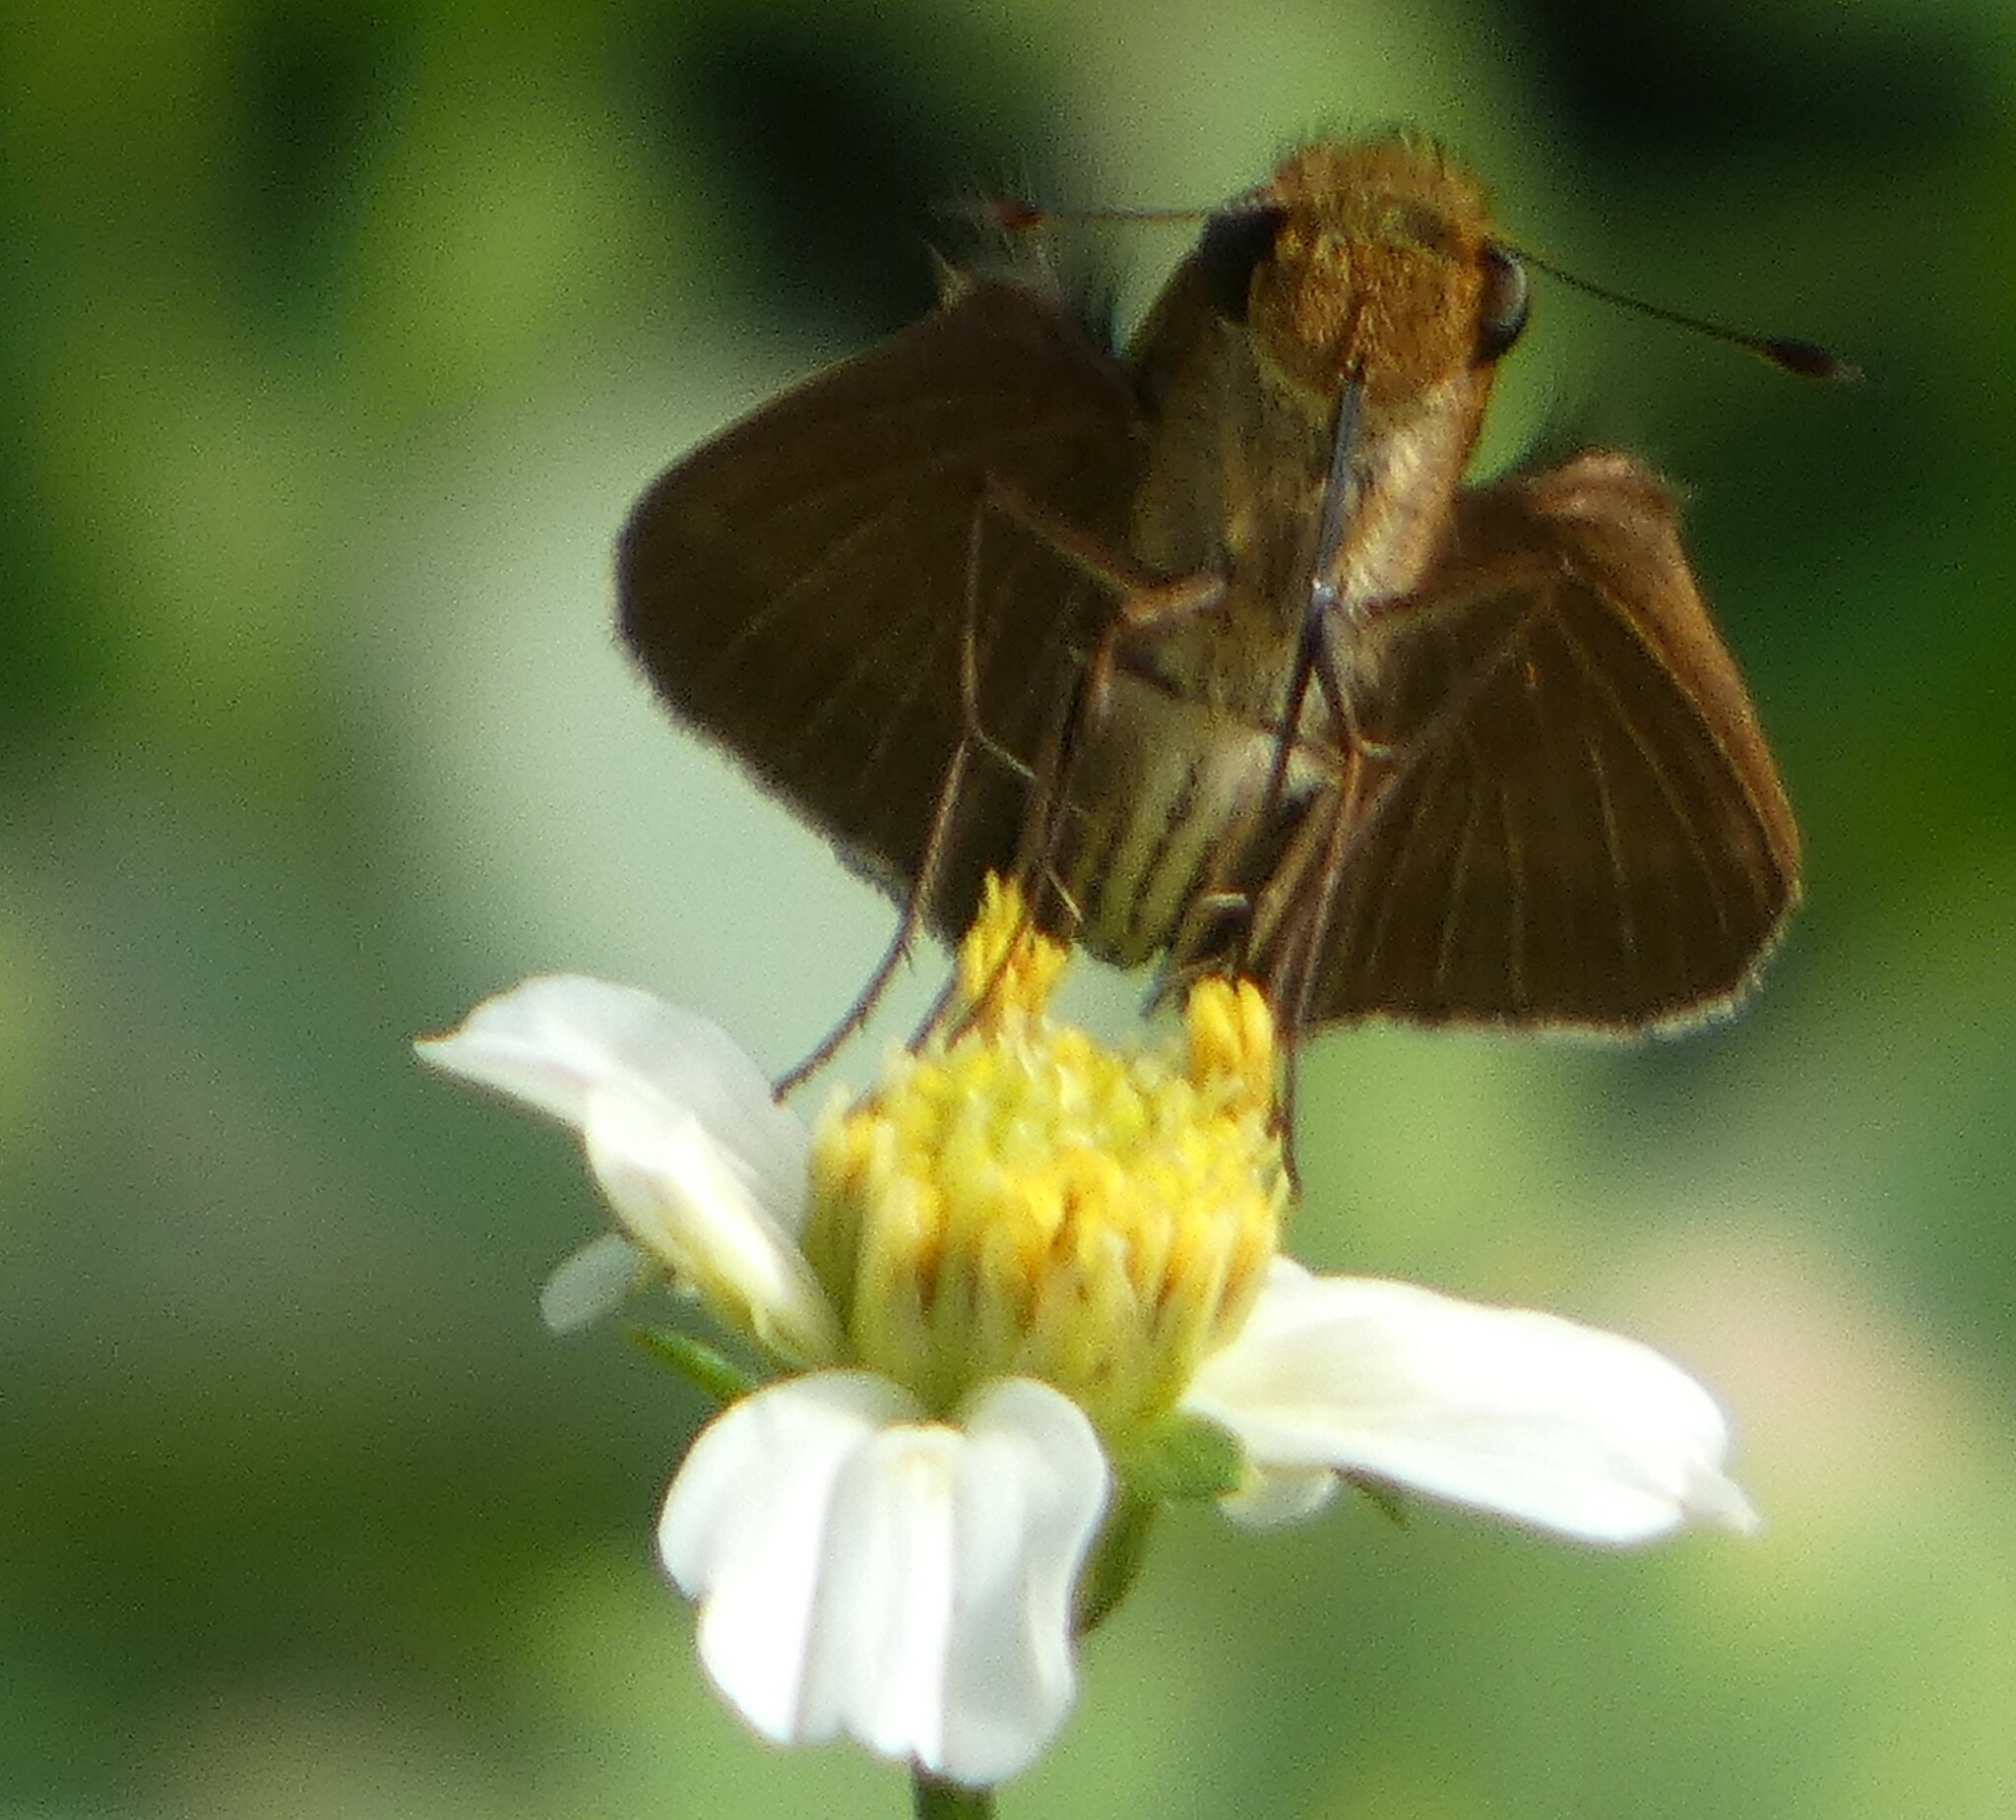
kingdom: Animalia
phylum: Arthropoda
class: Insecta
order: Lepidoptera
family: Hesperiidae
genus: Panoquina
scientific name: Panoquina ocola
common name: Ocola skipper
